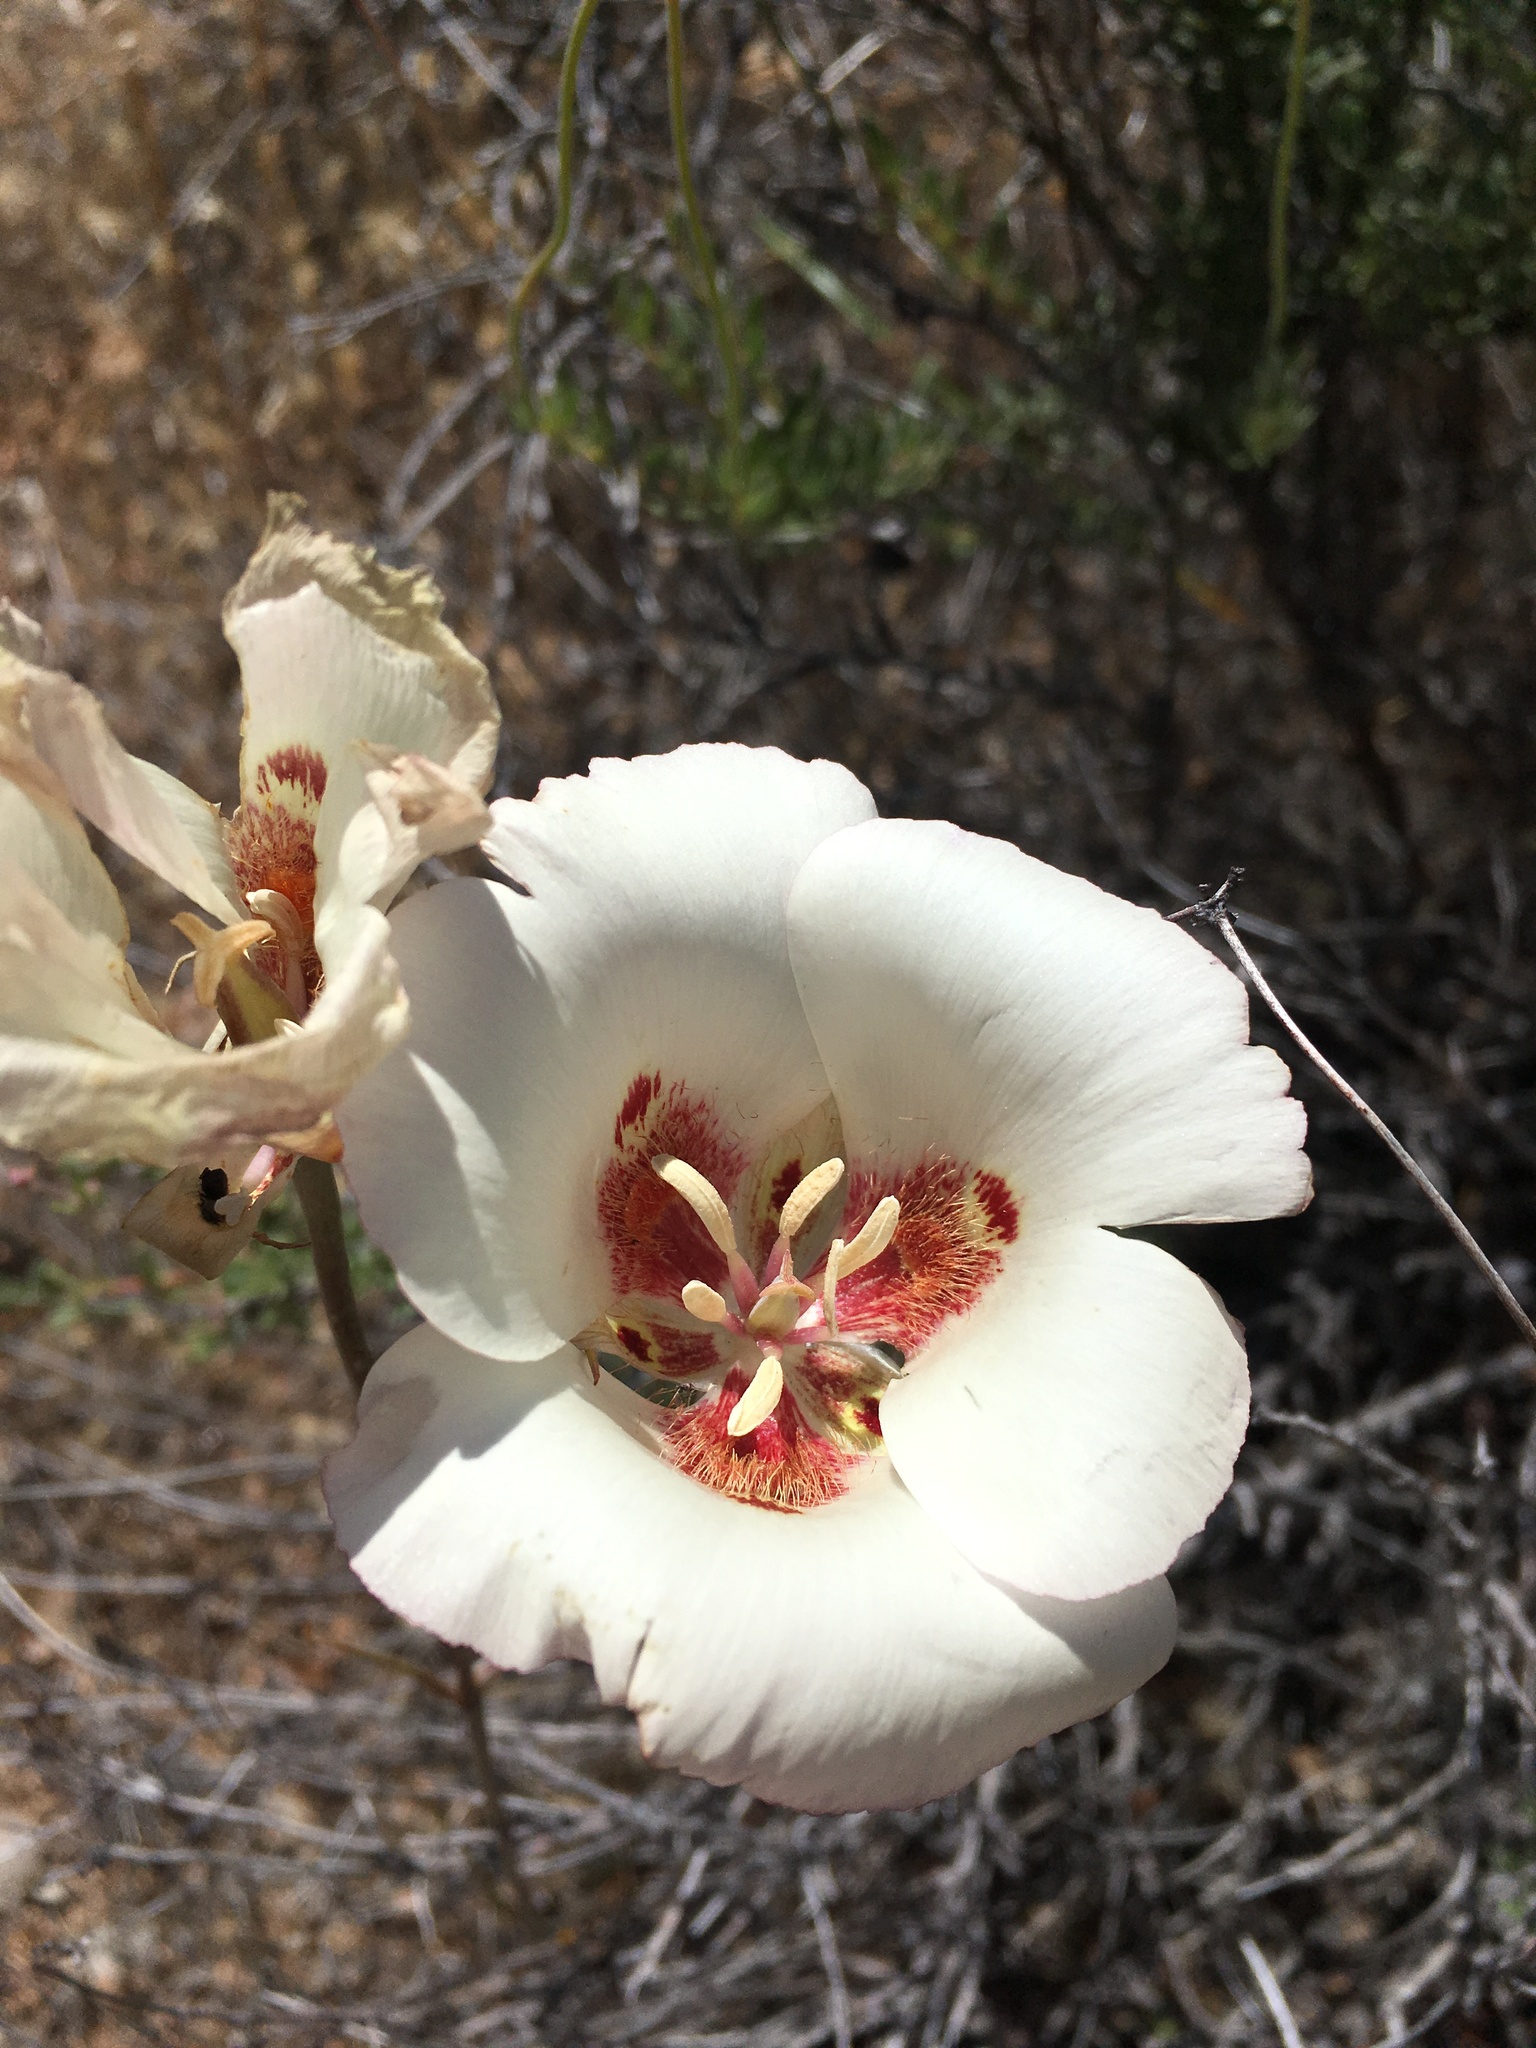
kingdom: Plantae
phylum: Tracheophyta
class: Liliopsida
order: Liliales
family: Liliaceae
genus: Calochortus
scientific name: Calochortus venustus
